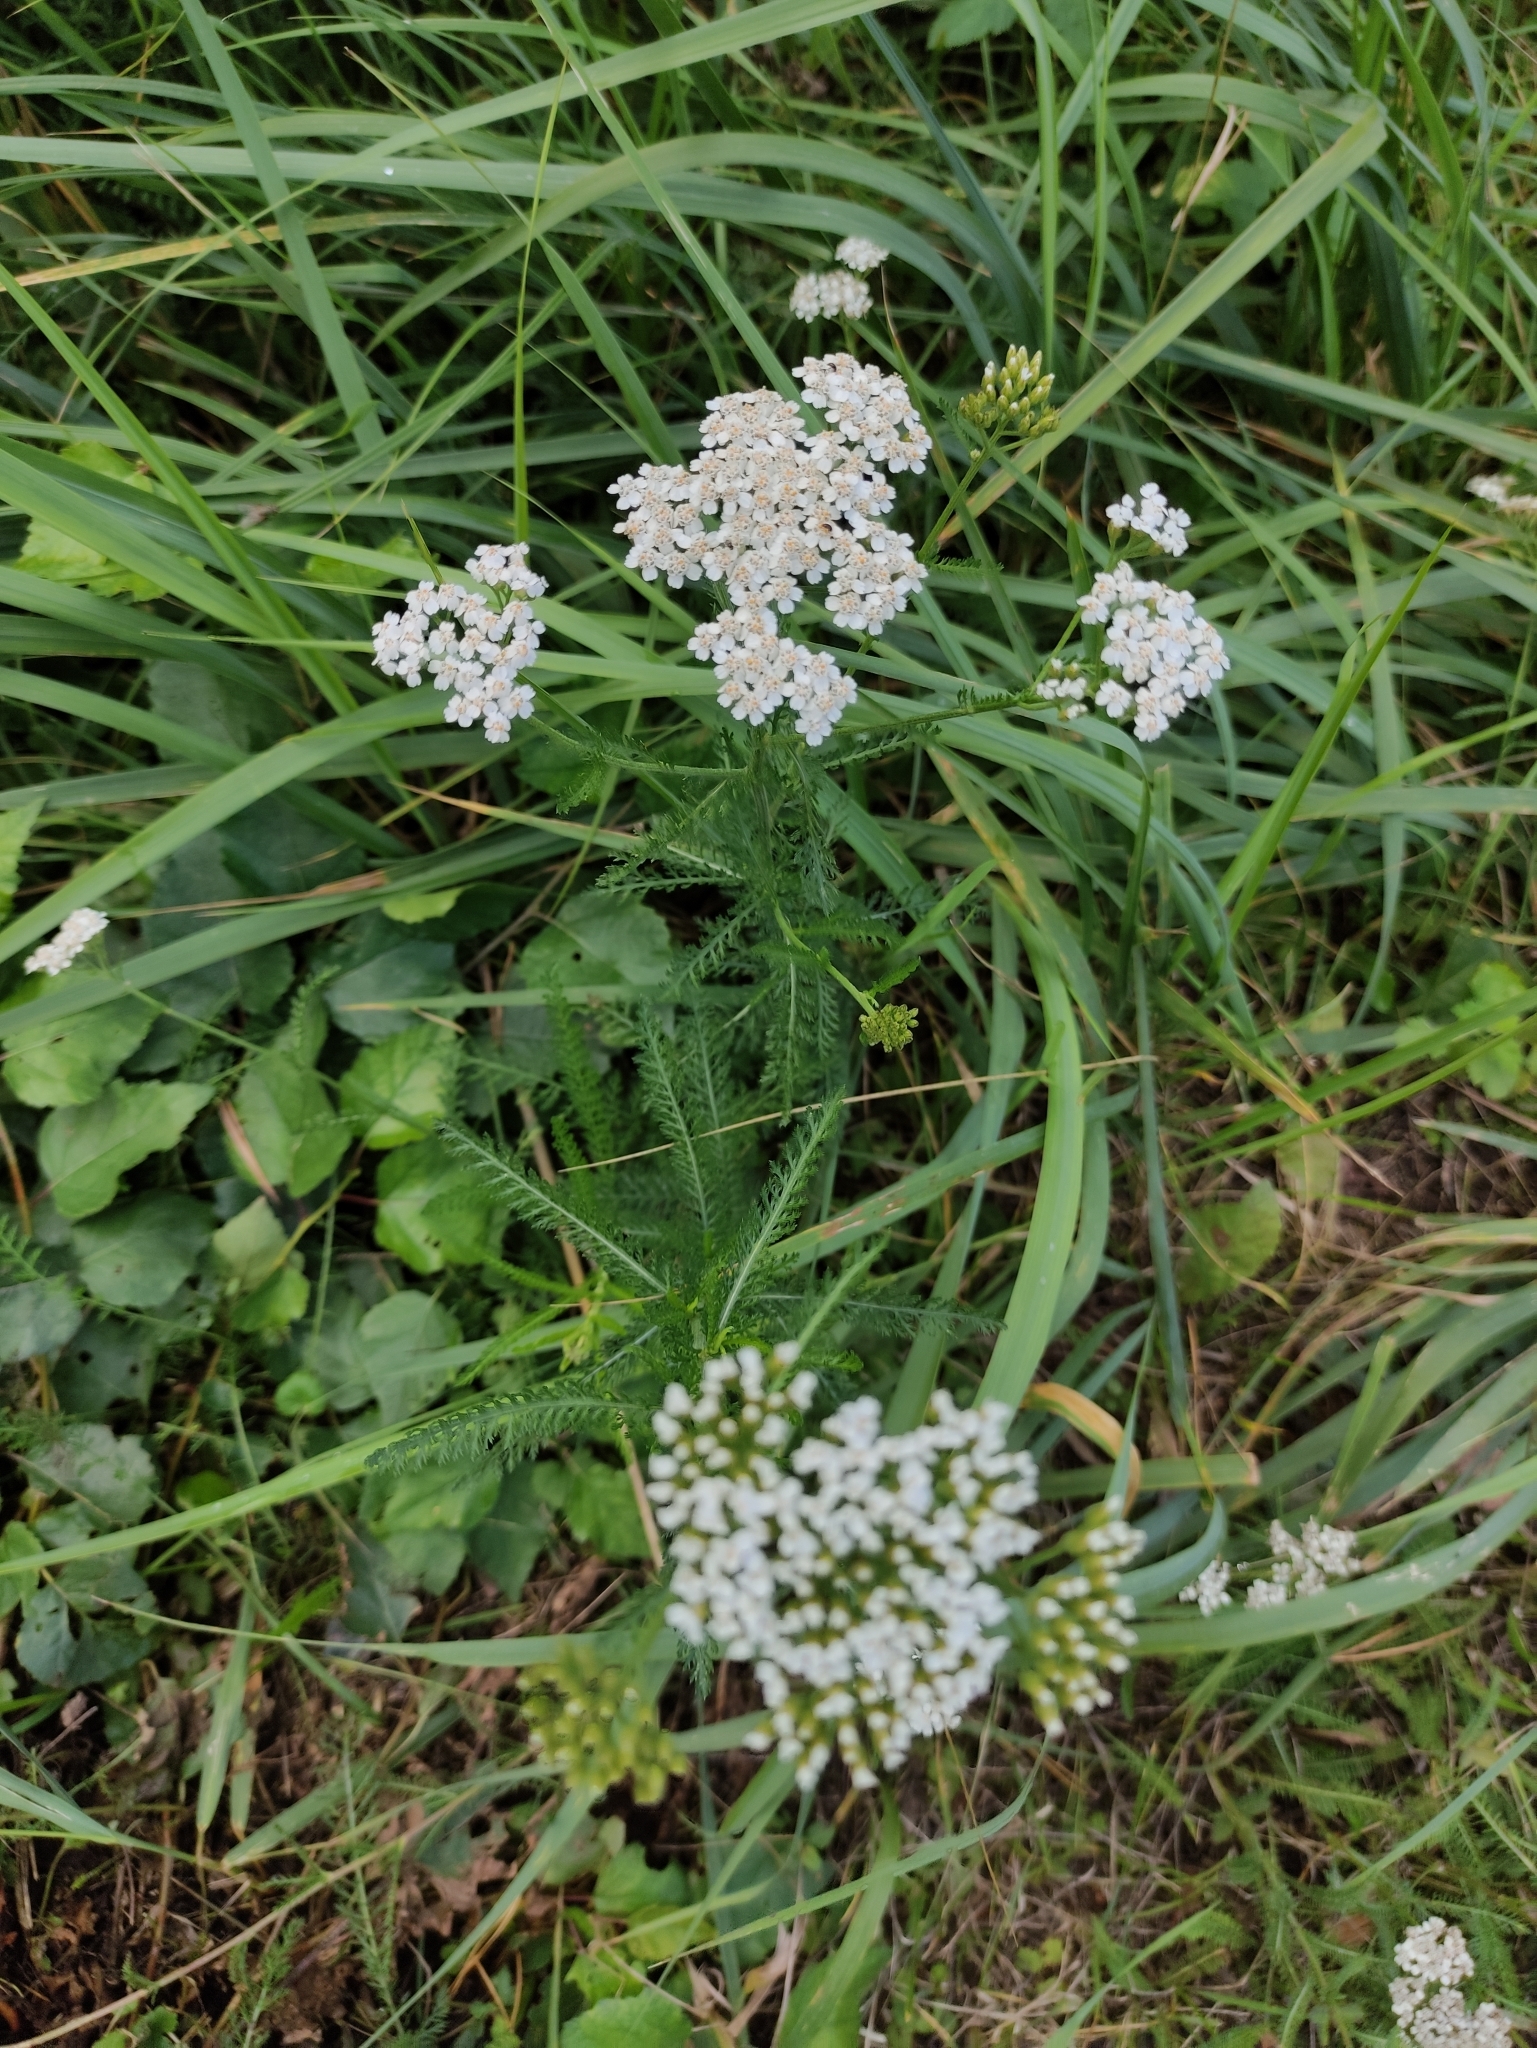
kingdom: Plantae
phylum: Tracheophyta
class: Magnoliopsida
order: Asterales
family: Asteraceae
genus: Achillea
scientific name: Achillea millefolium
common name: Yarrow
